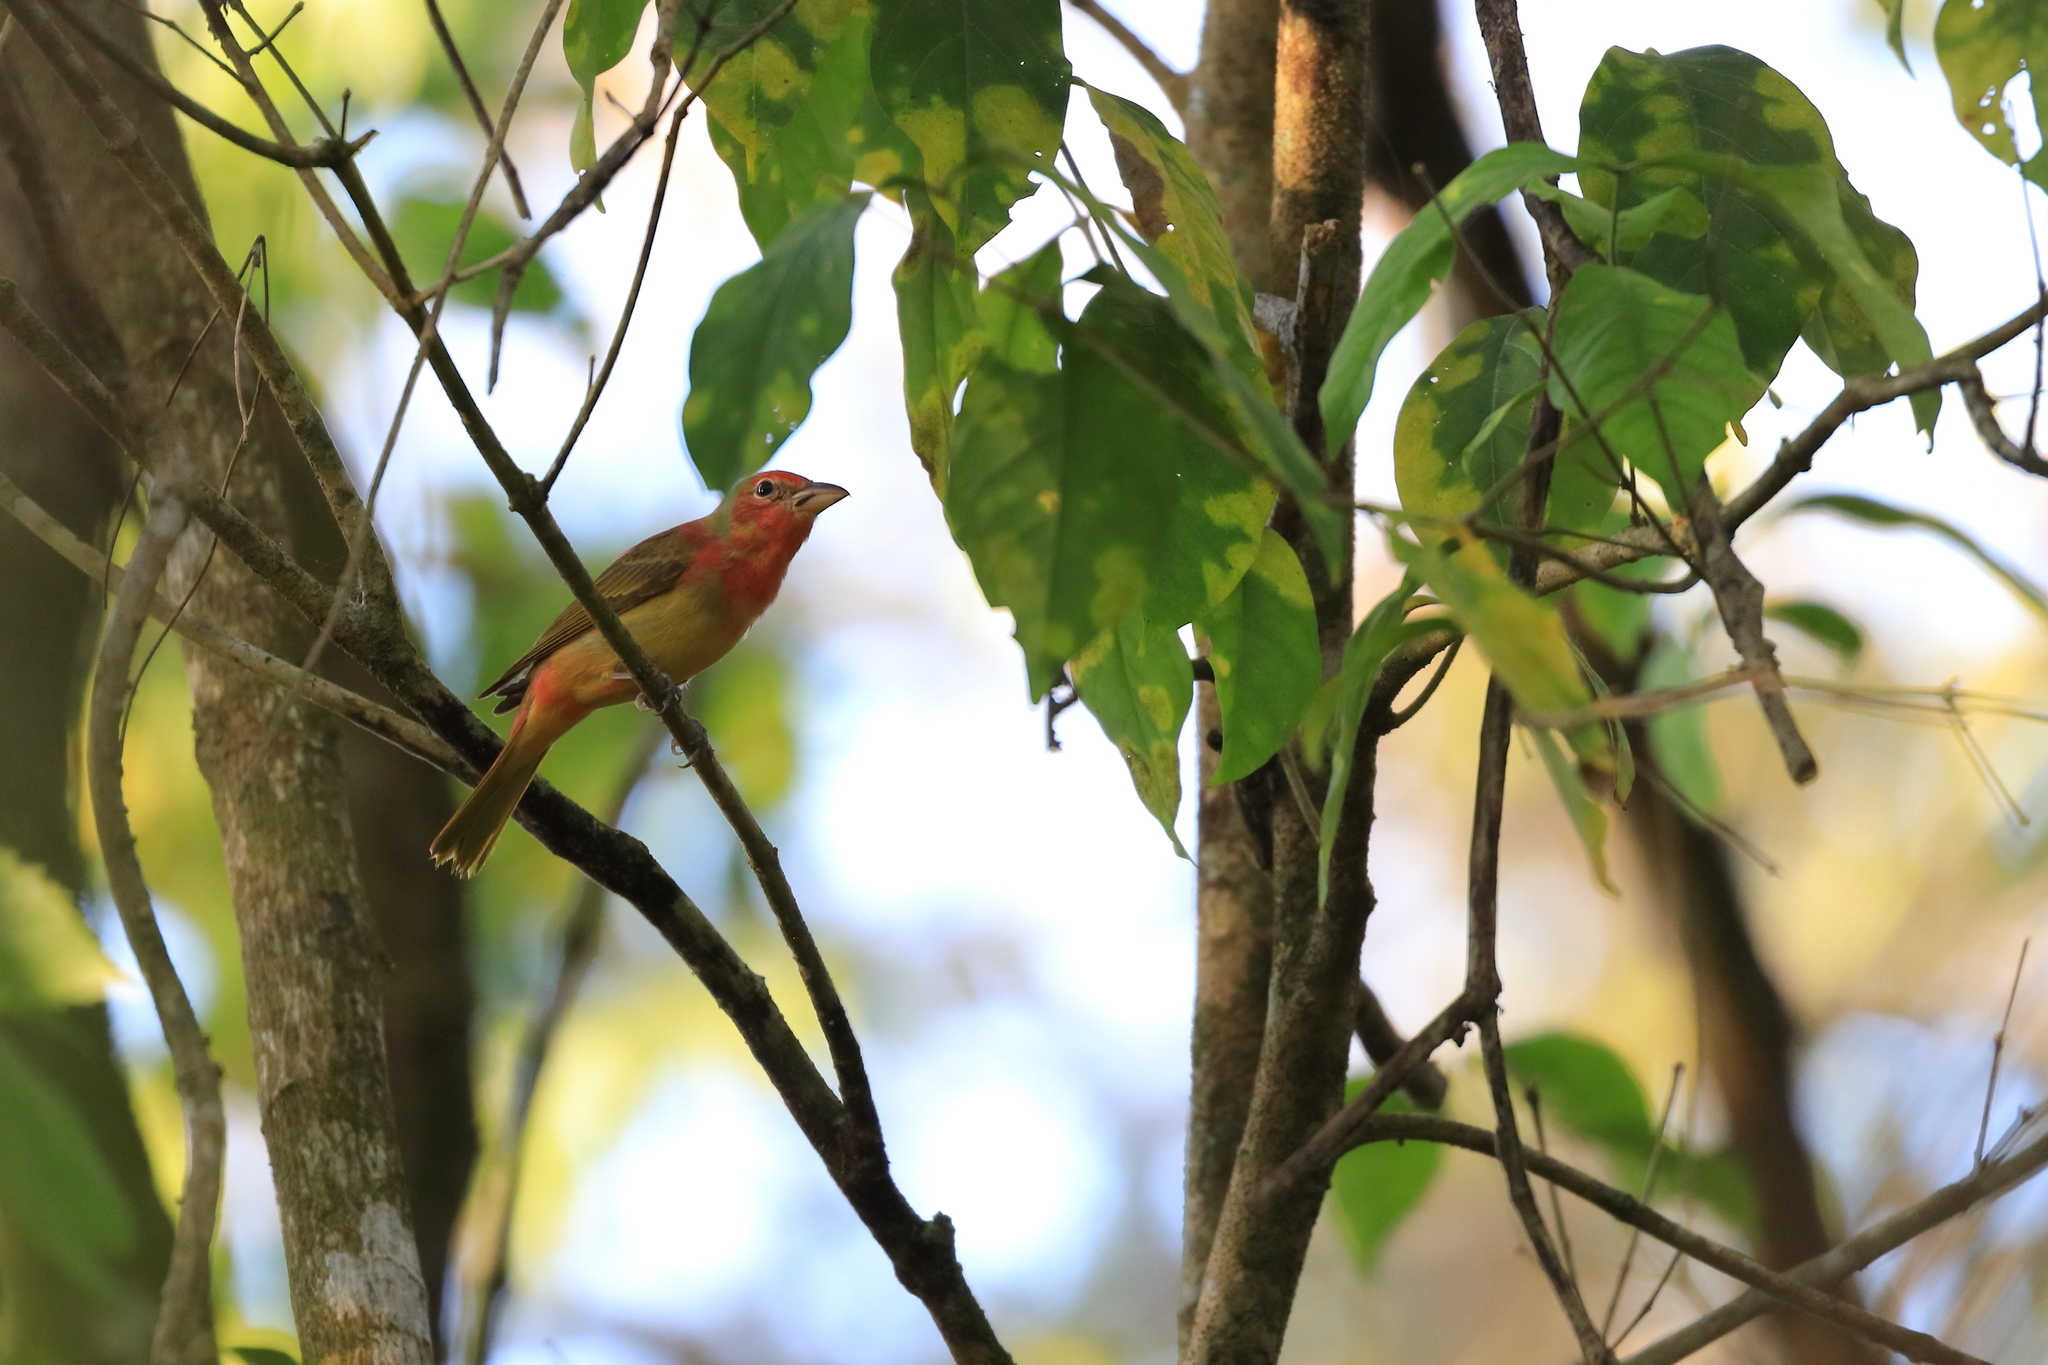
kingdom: Animalia
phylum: Chordata
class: Aves
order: Passeriformes
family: Cardinalidae
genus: Piranga
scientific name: Piranga rubra
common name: Summer tanager
